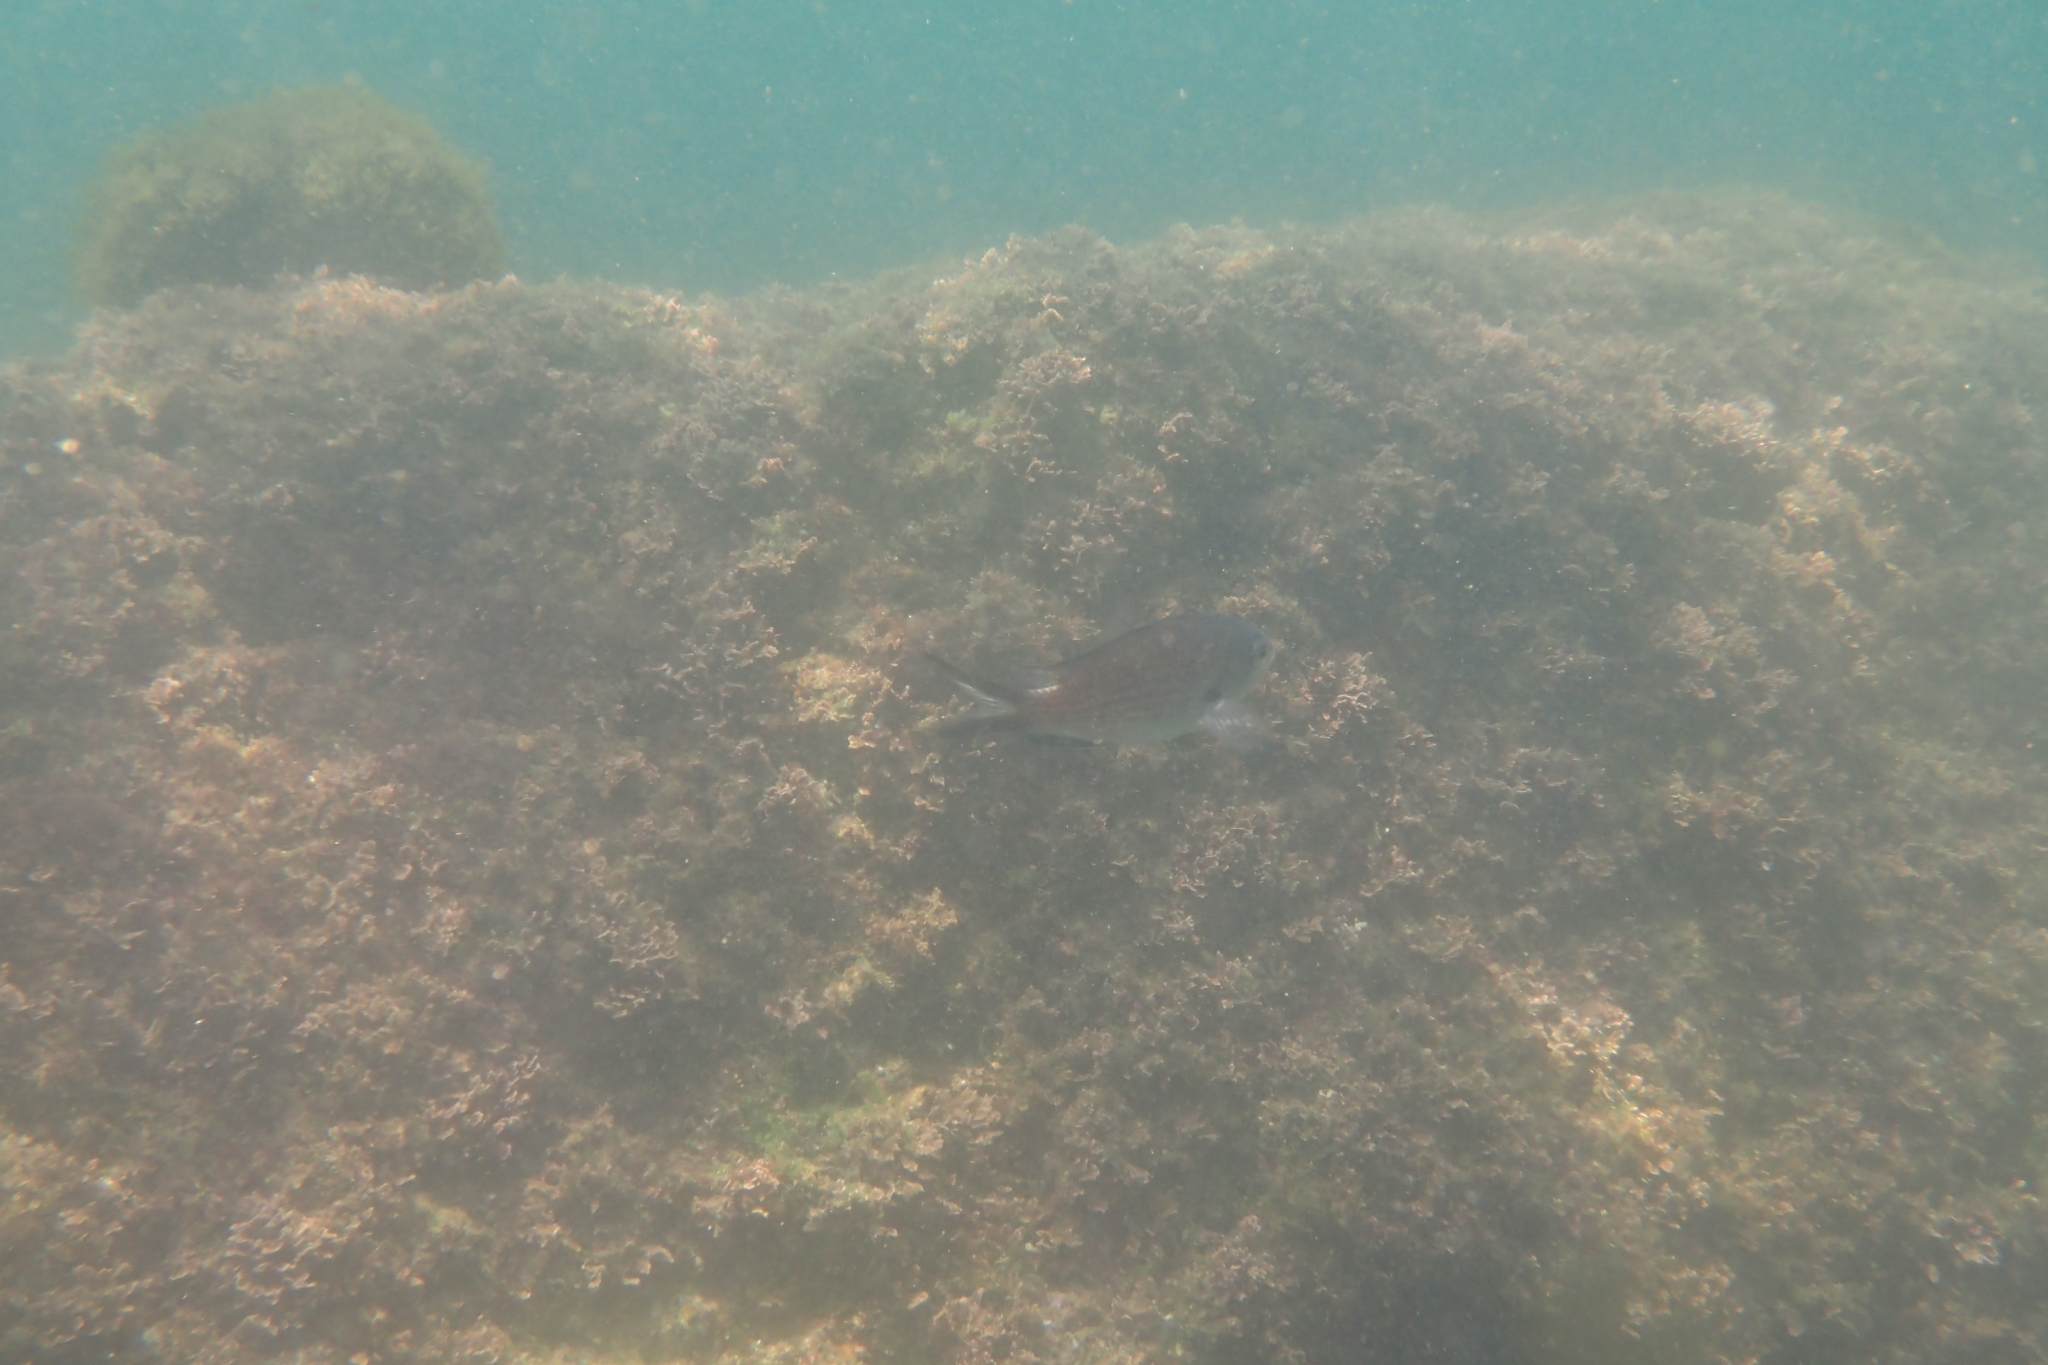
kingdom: Animalia
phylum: Chordata
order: Perciformes
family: Pomacentridae
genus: Chromis
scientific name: Chromis chromis
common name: Damselfish
